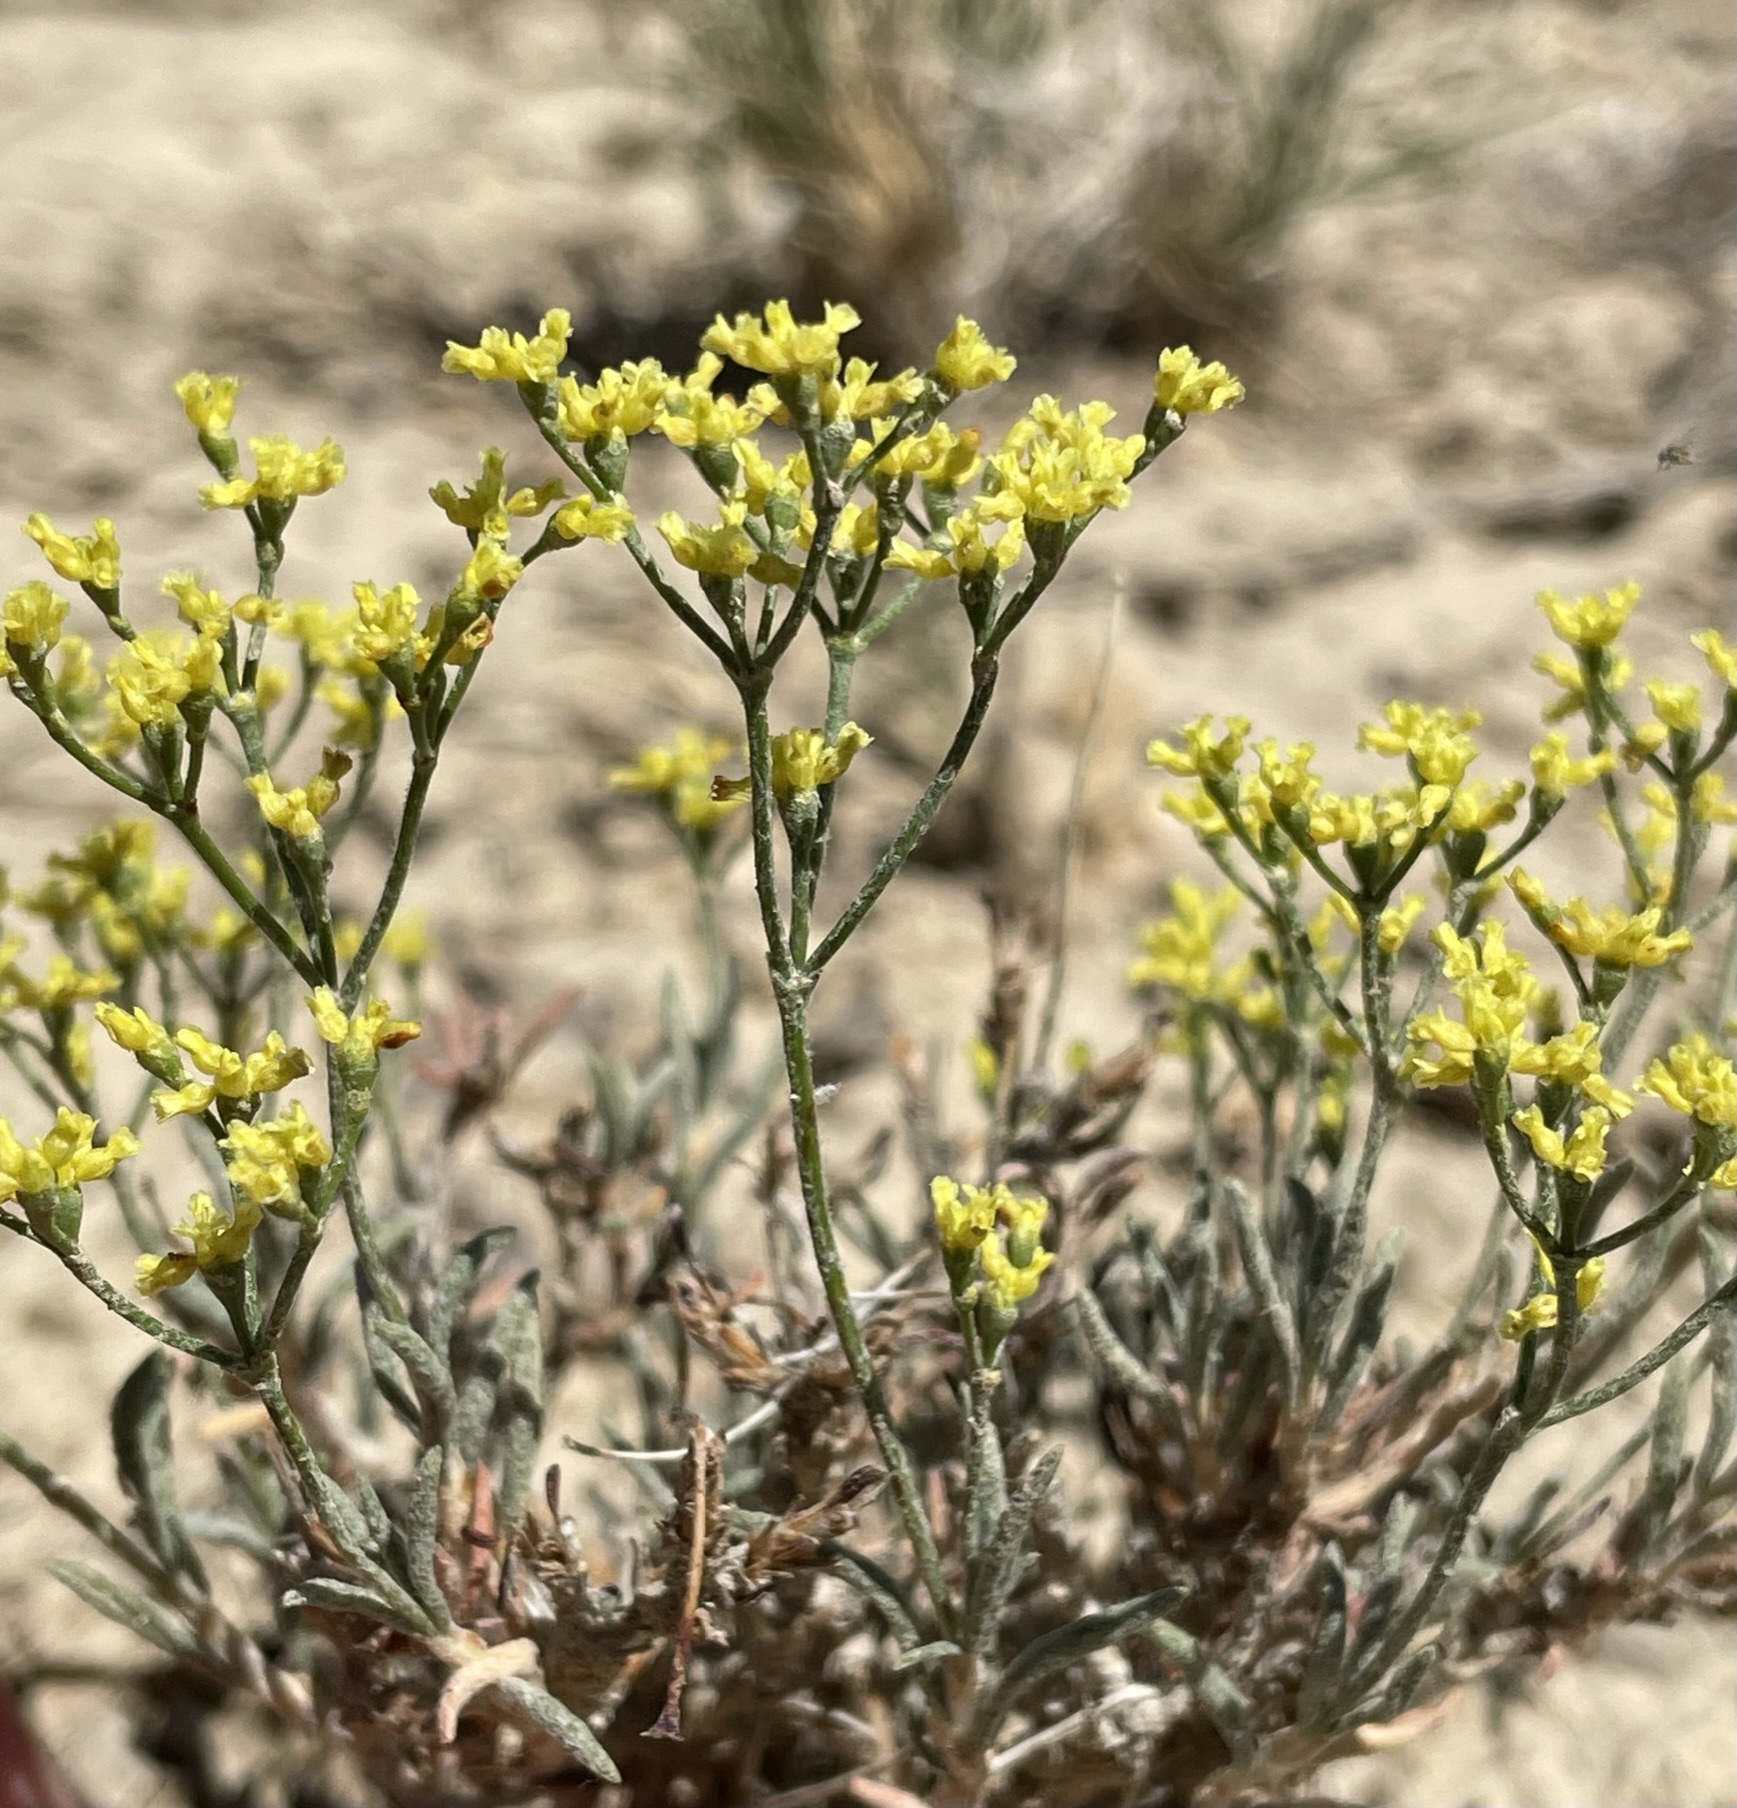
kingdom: Plantae
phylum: Tracheophyta
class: Magnoliopsida
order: Caryophyllales
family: Polygonaceae
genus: Eriogonum
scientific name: Eriogonum contortum
